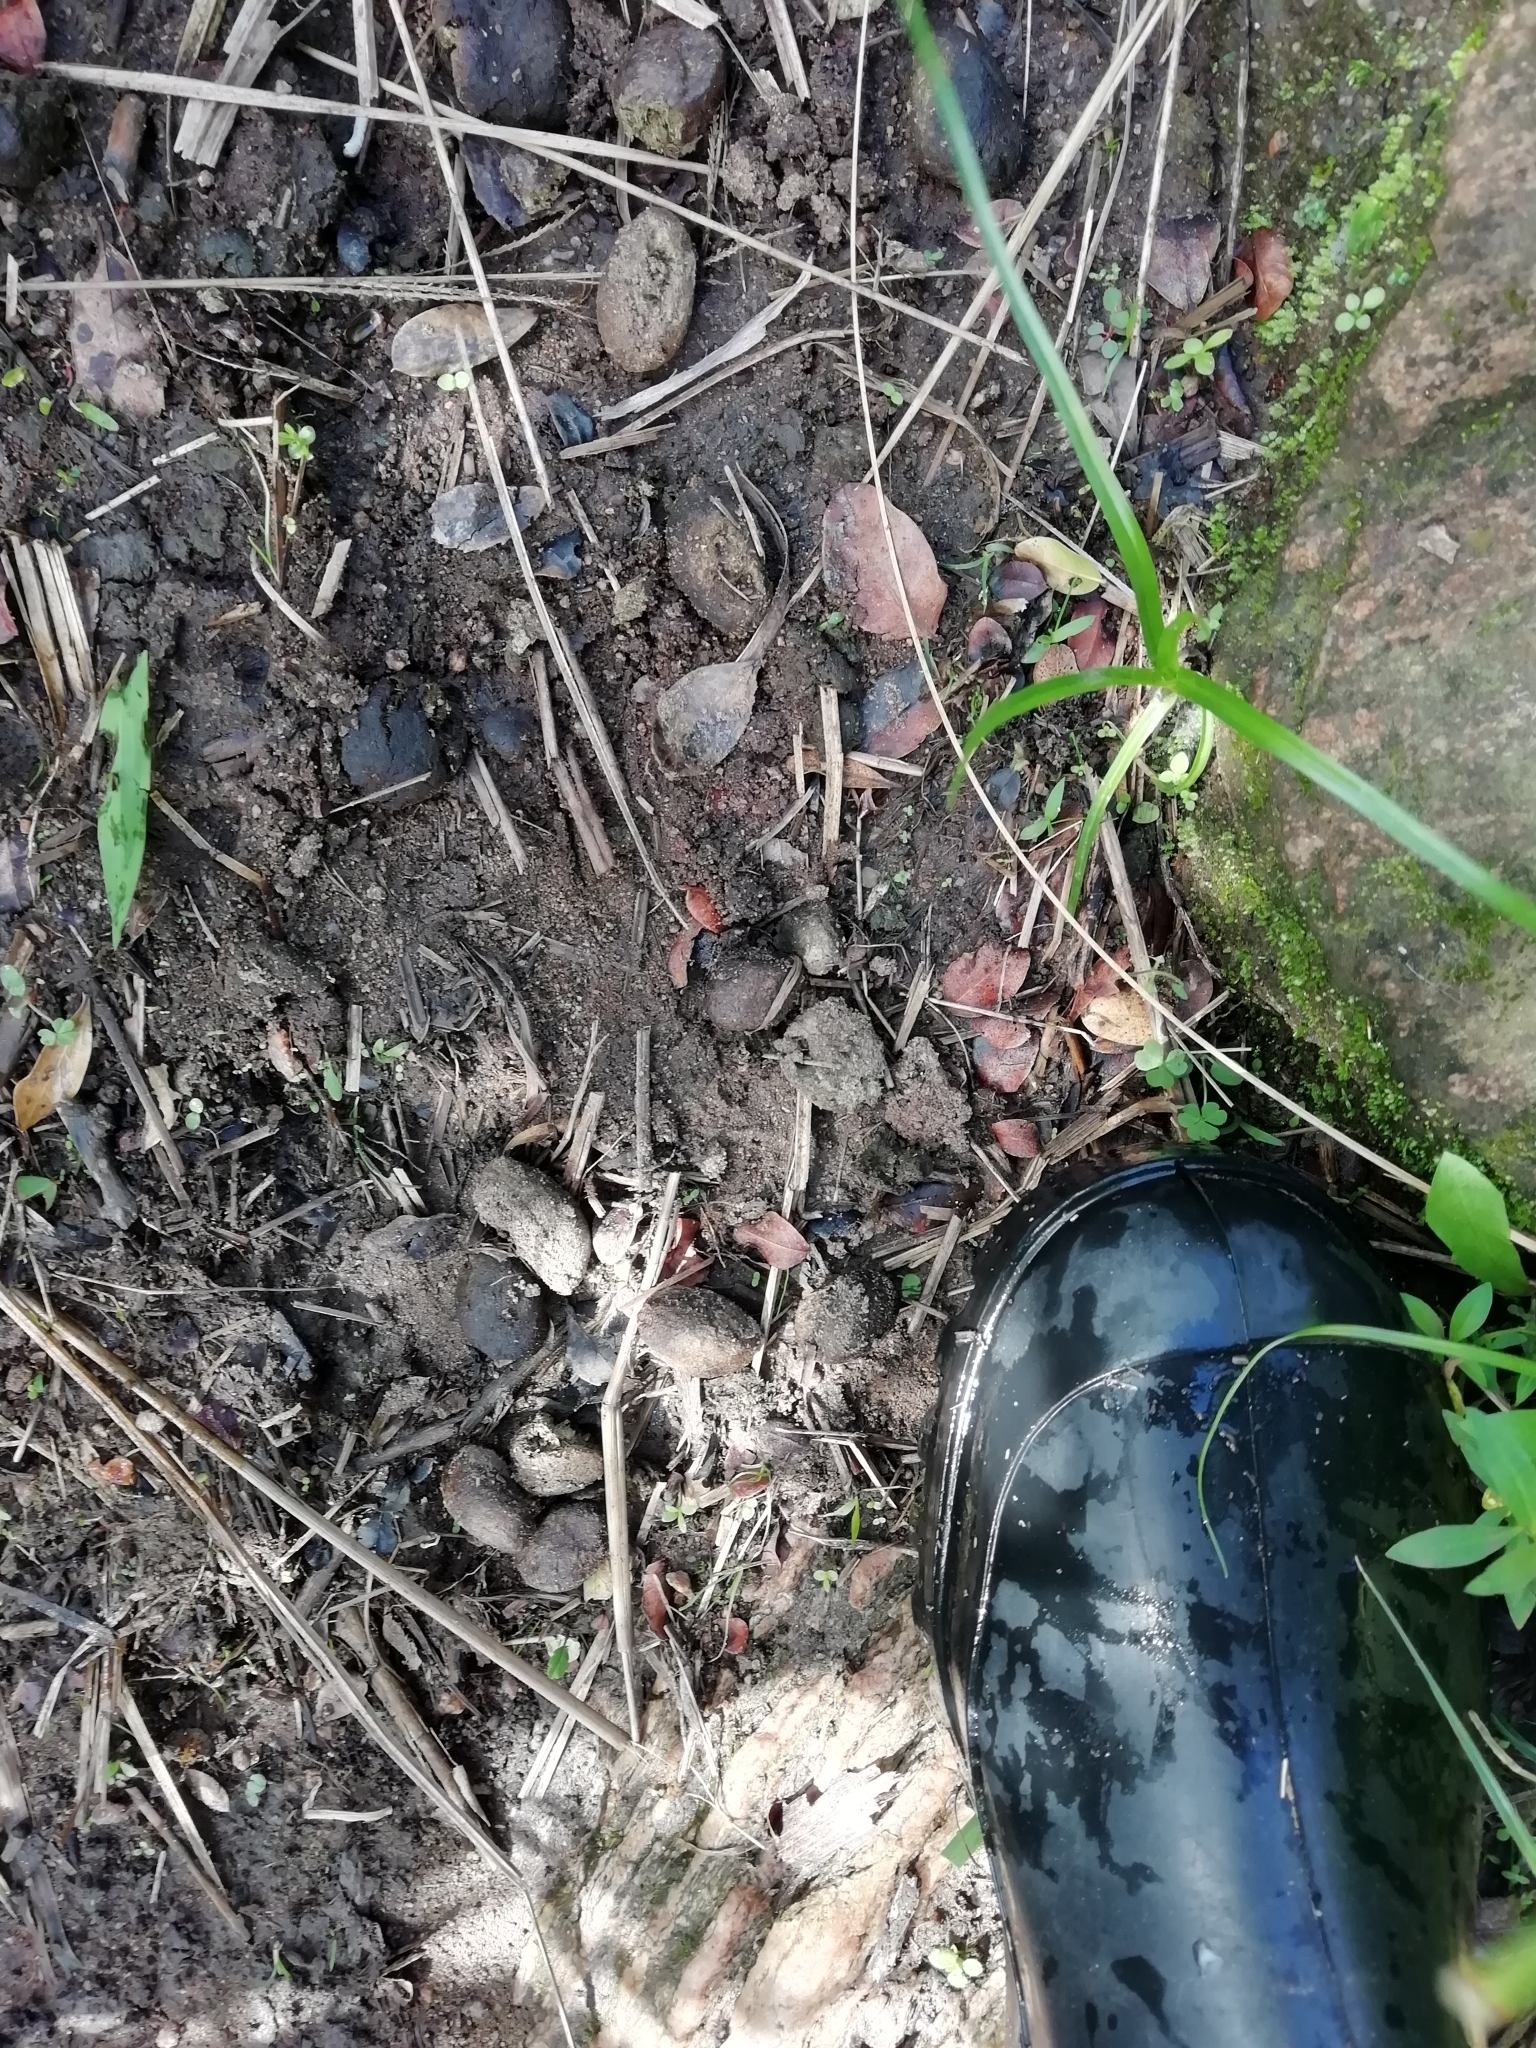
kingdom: Animalia
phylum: Chordata
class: Mammalia
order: Rodentia
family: Caviidae
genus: Hydrochoerus
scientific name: Hydrochoerus hydrochaeris
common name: Capybara
